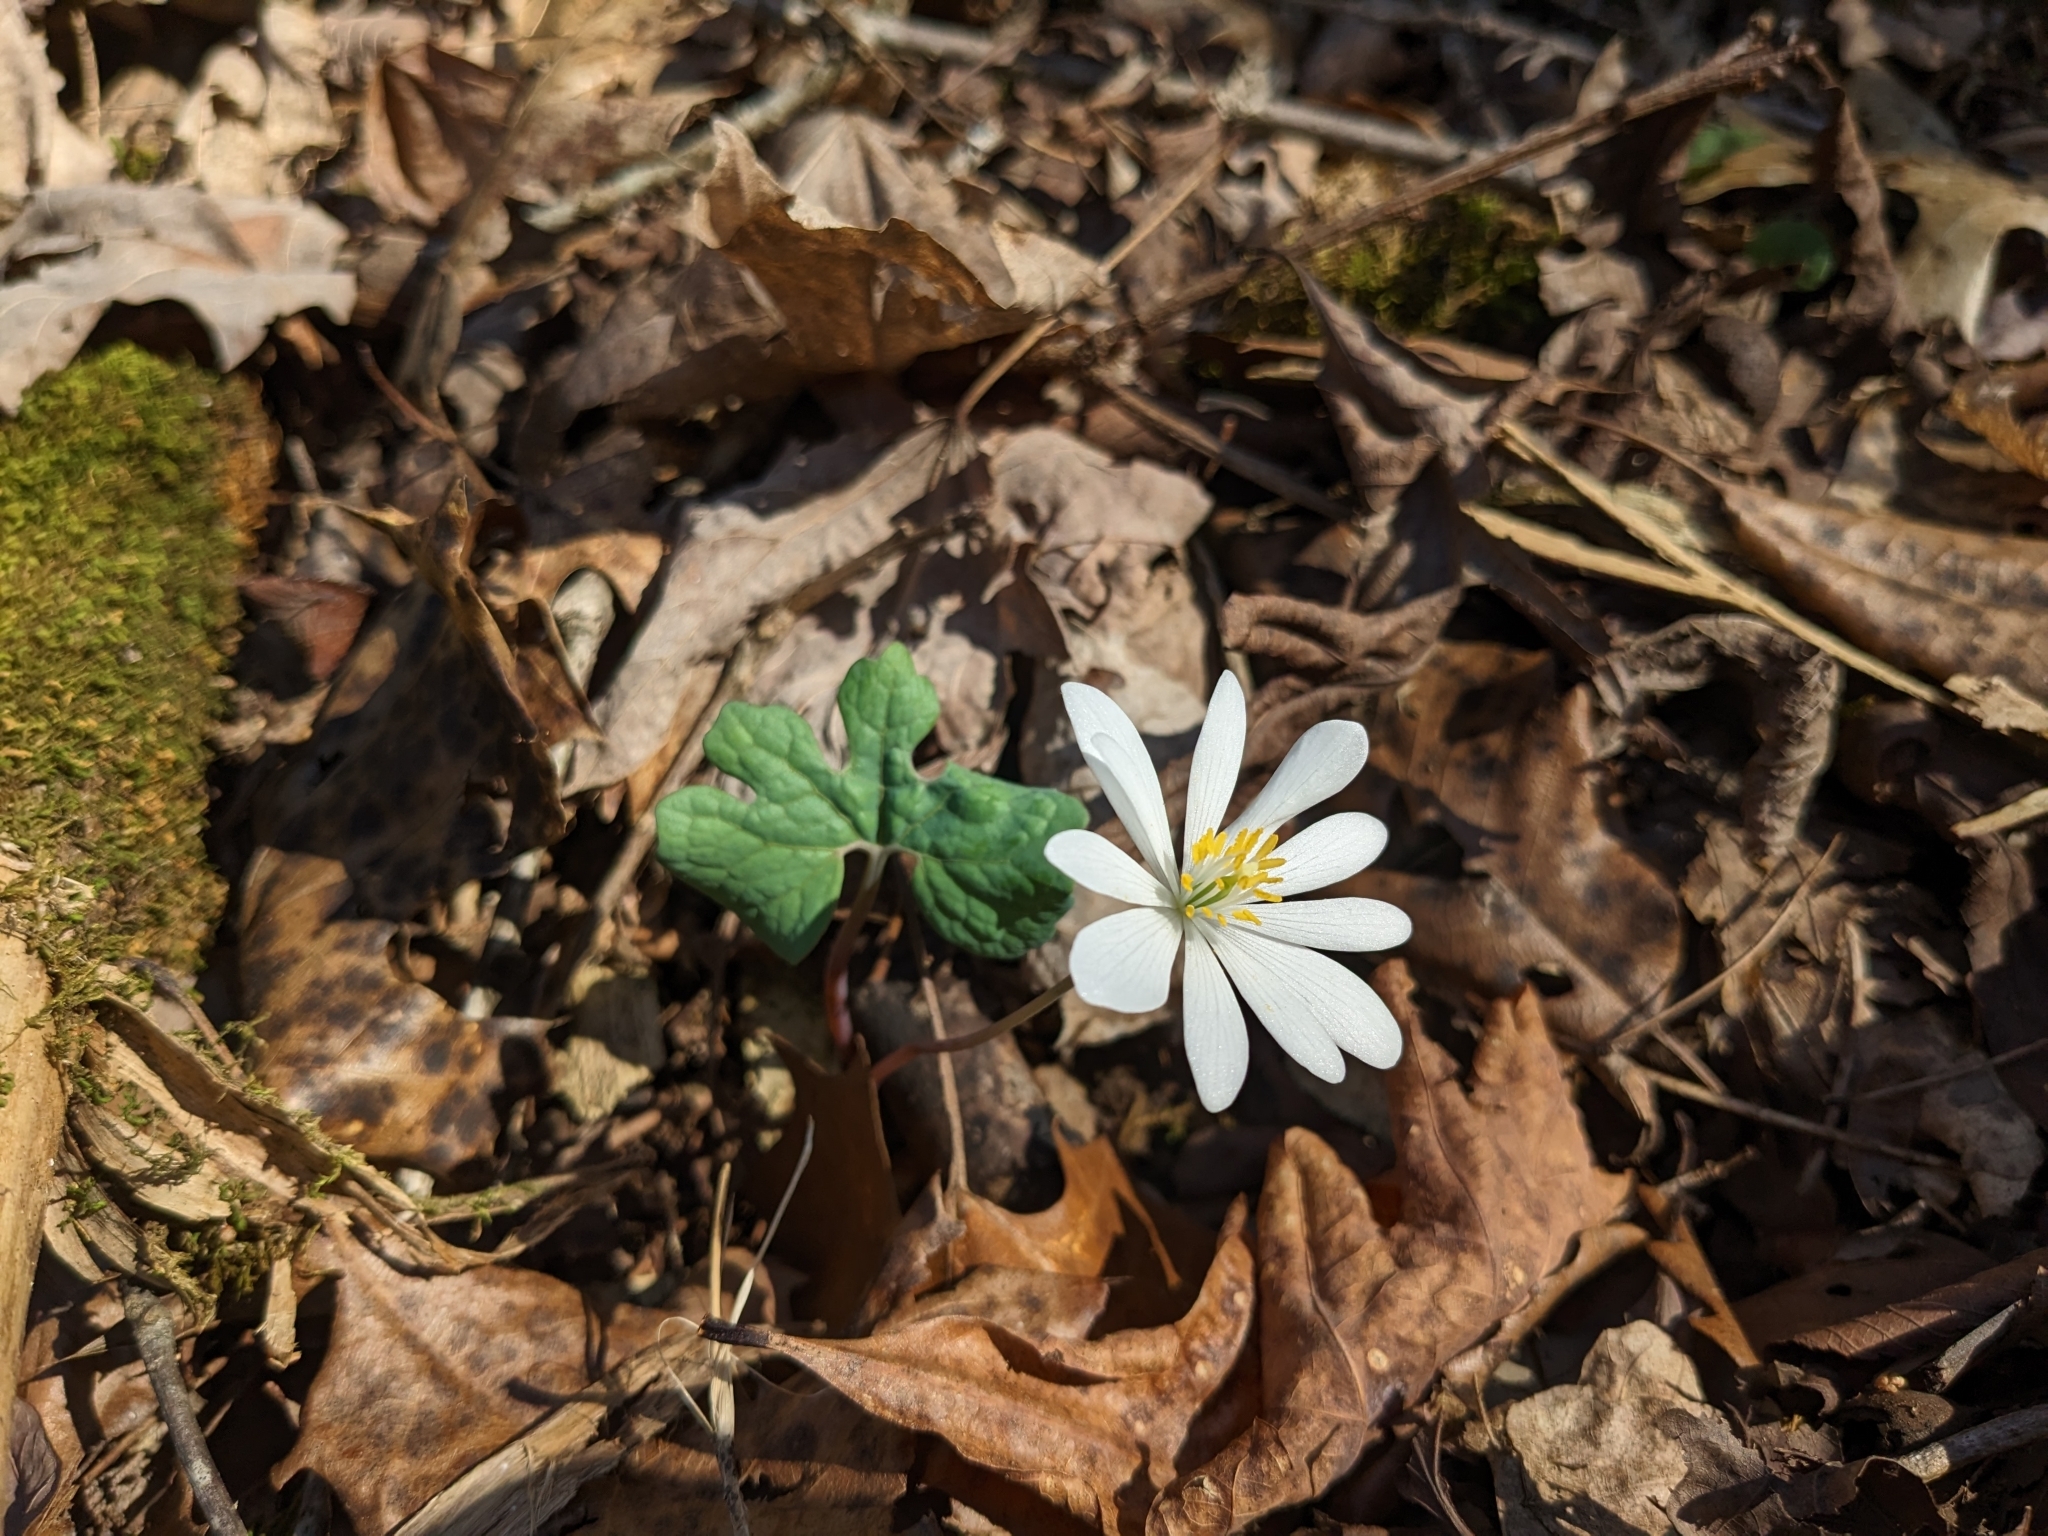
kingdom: Plantae
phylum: Tracheophyta
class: Magnoliopsida
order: Ranunculales
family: Papaveraceae
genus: Sanguinaria
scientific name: Sanguinaria canadensis
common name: Bloodroot
